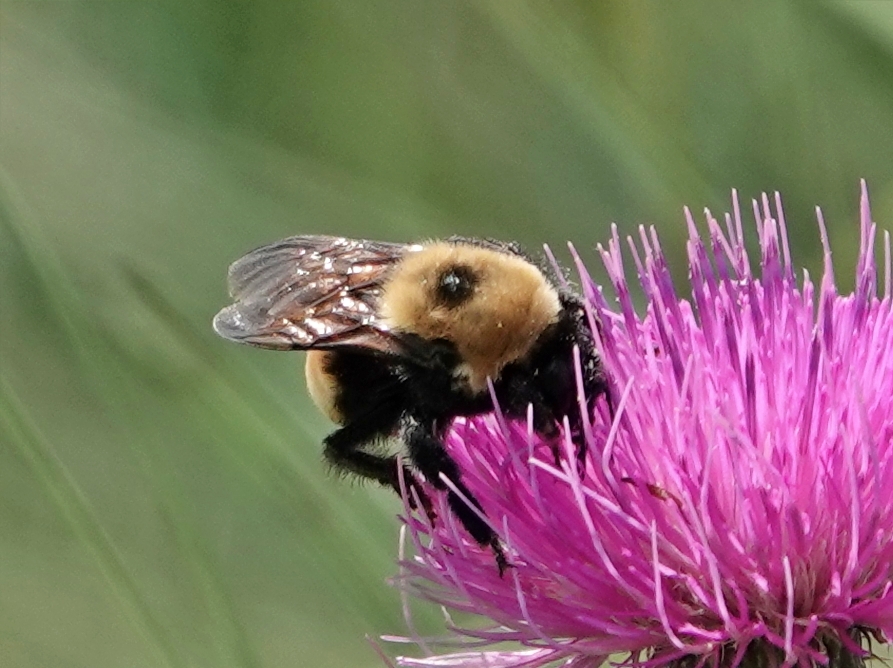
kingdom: Animalia
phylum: Arthropoda
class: Insecta
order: Hymenoptera
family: Apidae
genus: Bombus
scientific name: Bombus nevadensis
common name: Nevada bumble bee
